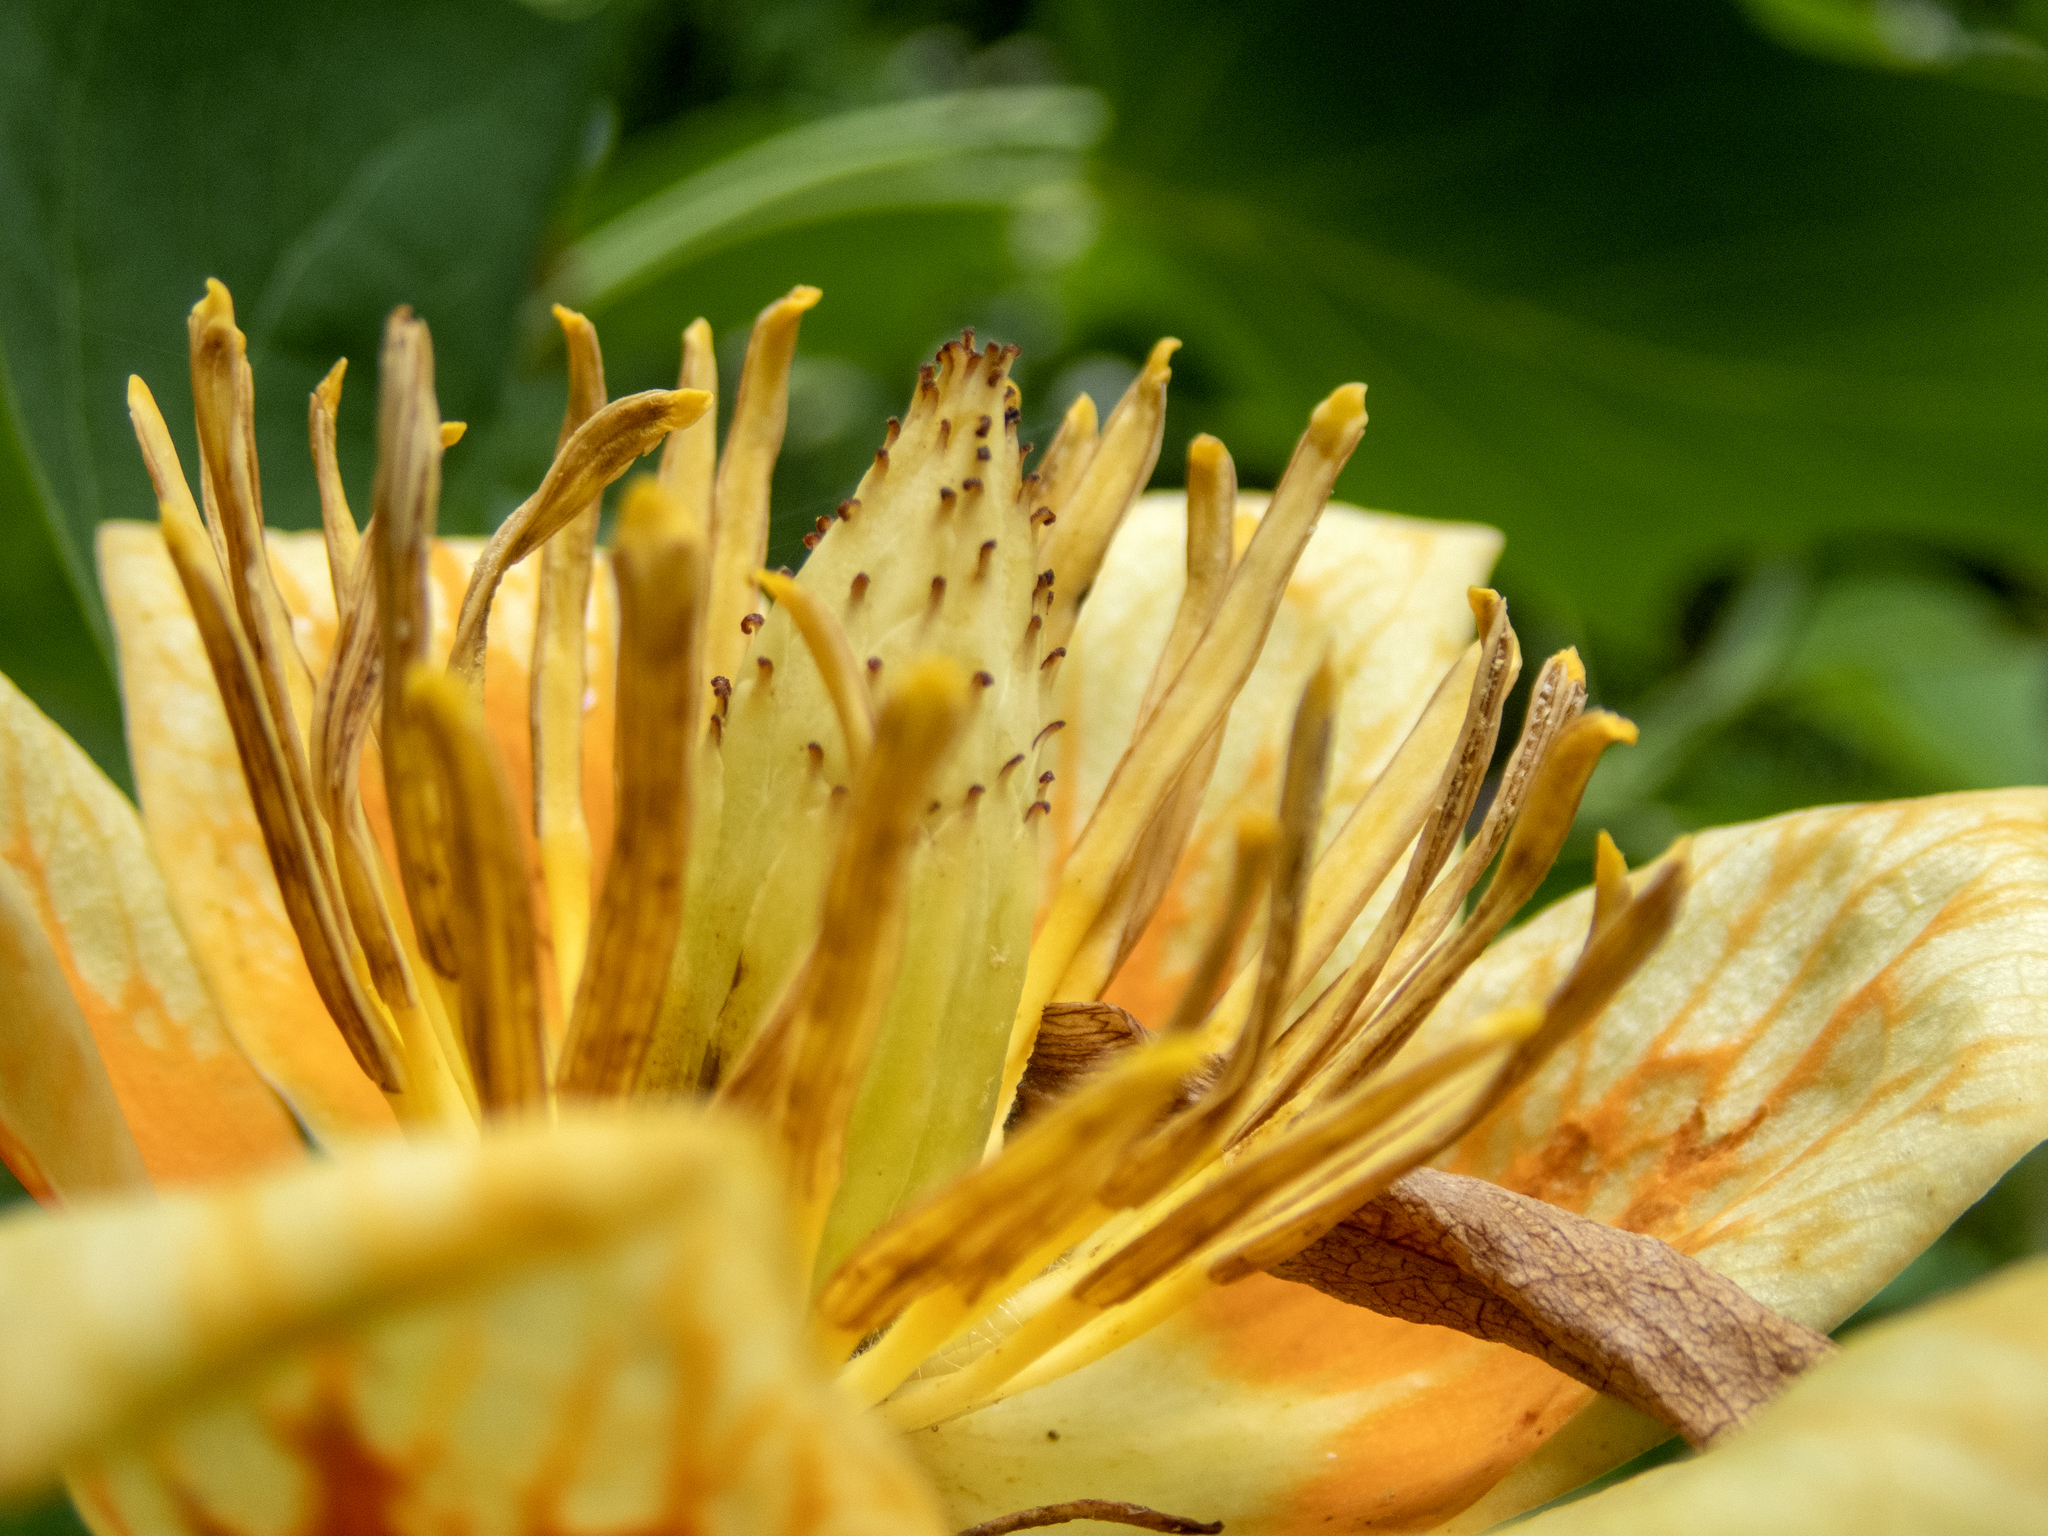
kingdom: Plantae
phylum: Tracheophyta
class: Magnoliopsida
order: Magnoliales
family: Magnoliaceae
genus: Liriodendron
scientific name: Liriodendron tulipifera
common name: Tulip tree
